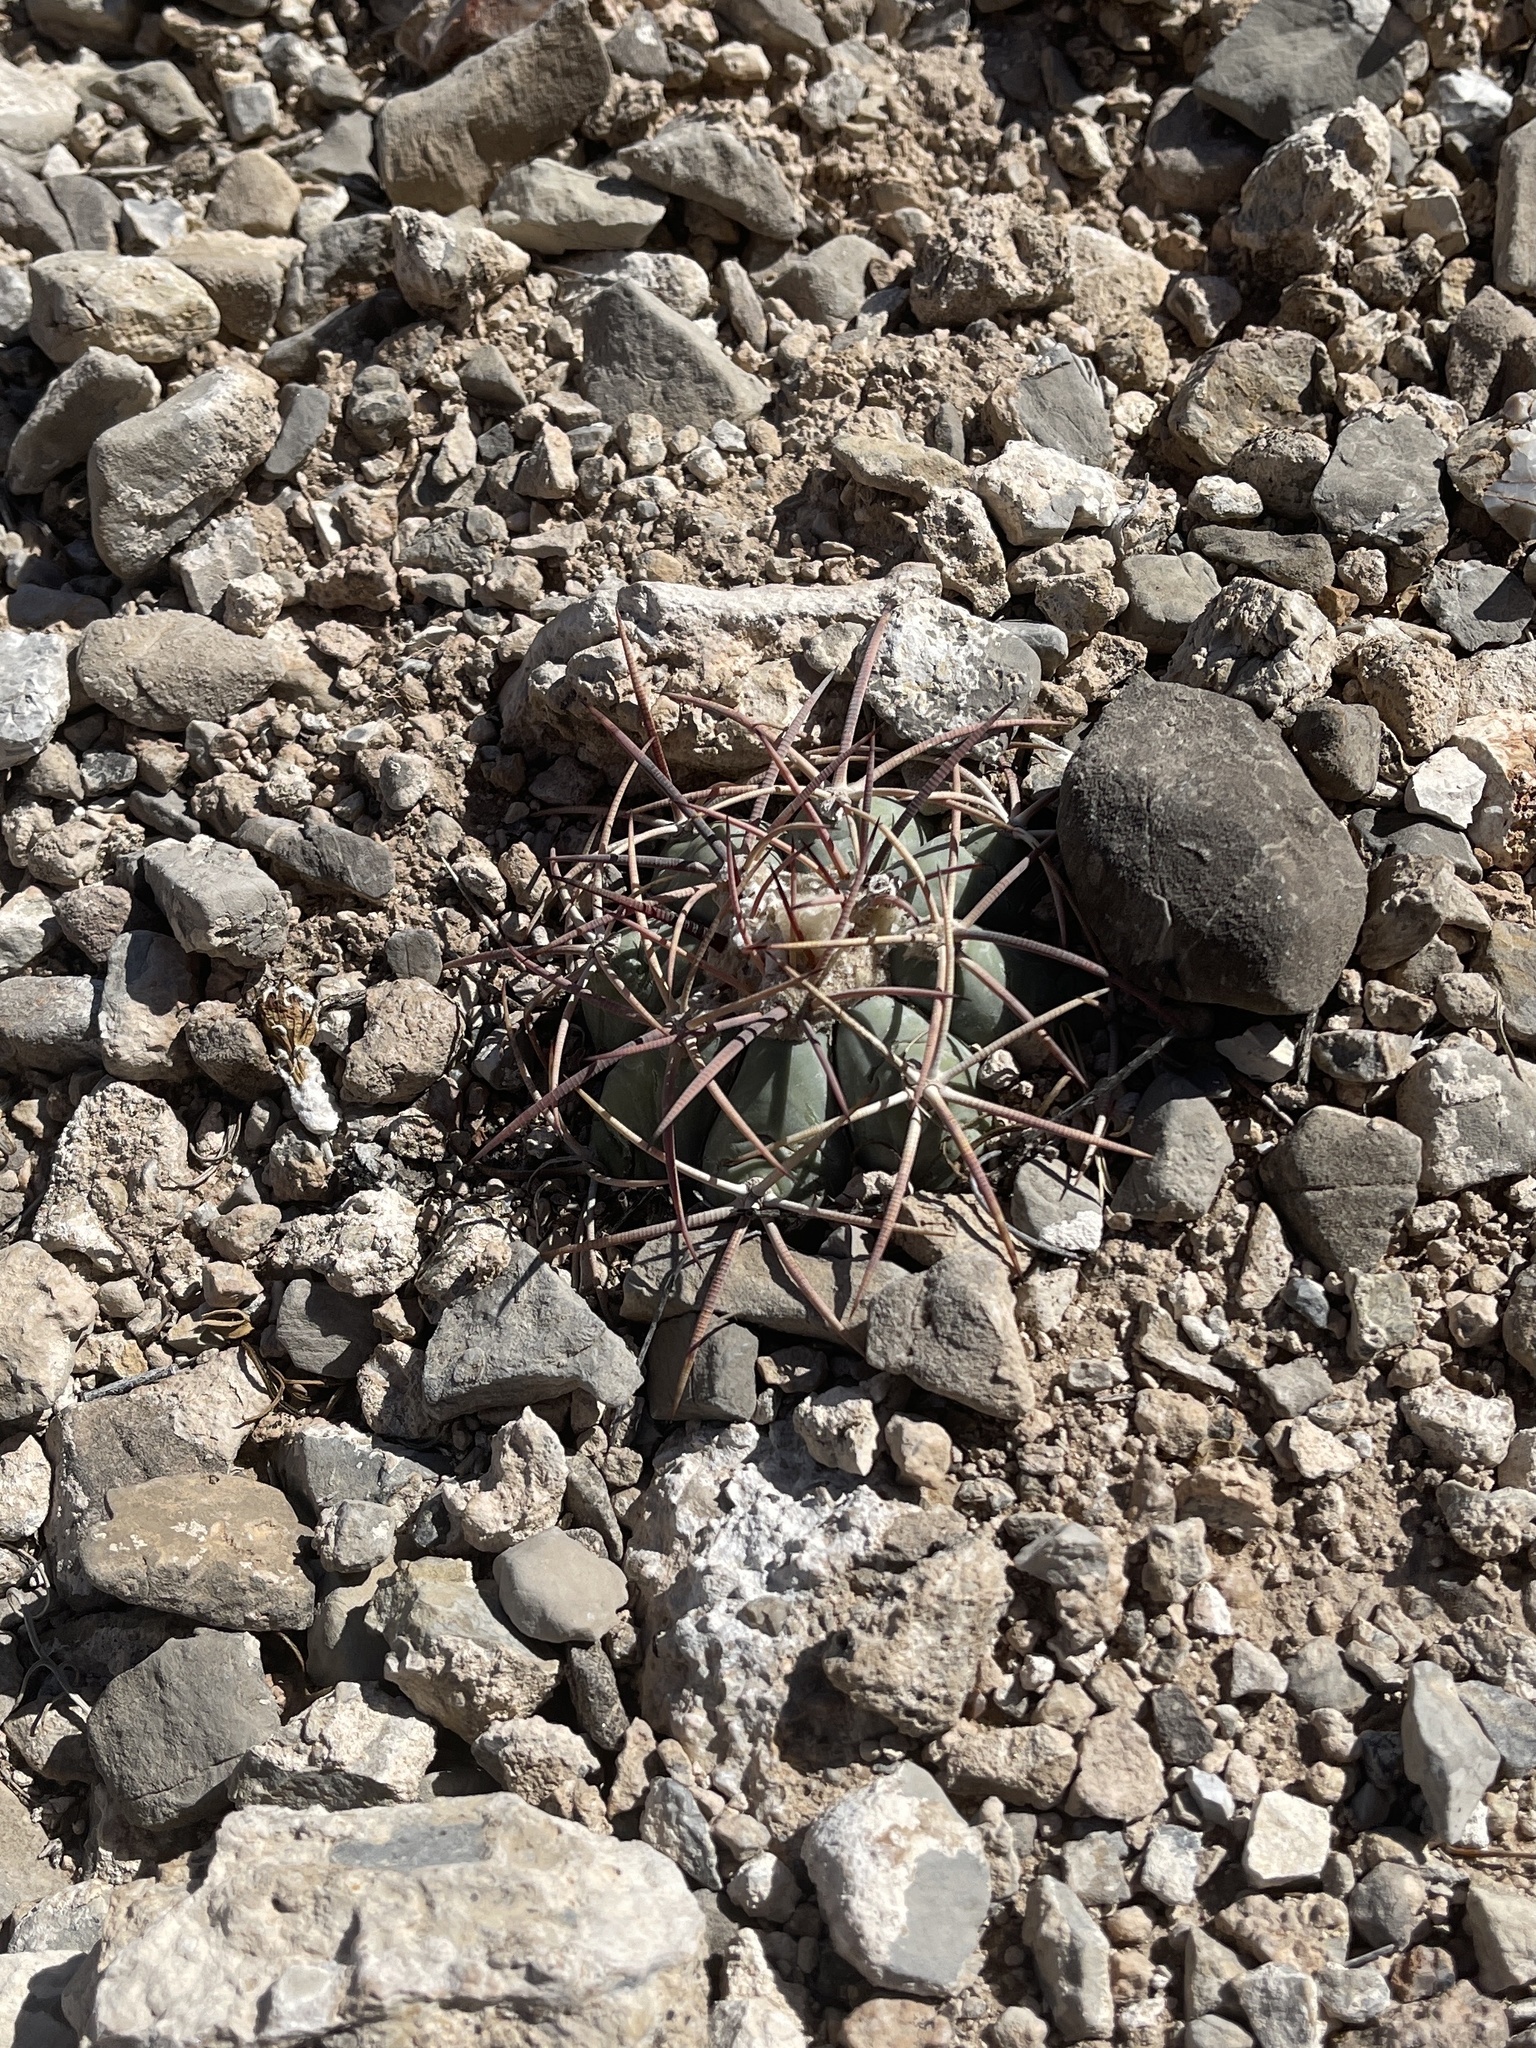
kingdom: Plantae
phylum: Tracheophyta
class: Magnoliopsida
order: Caryophyllales
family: Cactaceae
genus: Echinocactus
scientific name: Echinocactus horizonthalonius
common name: Devilshead
